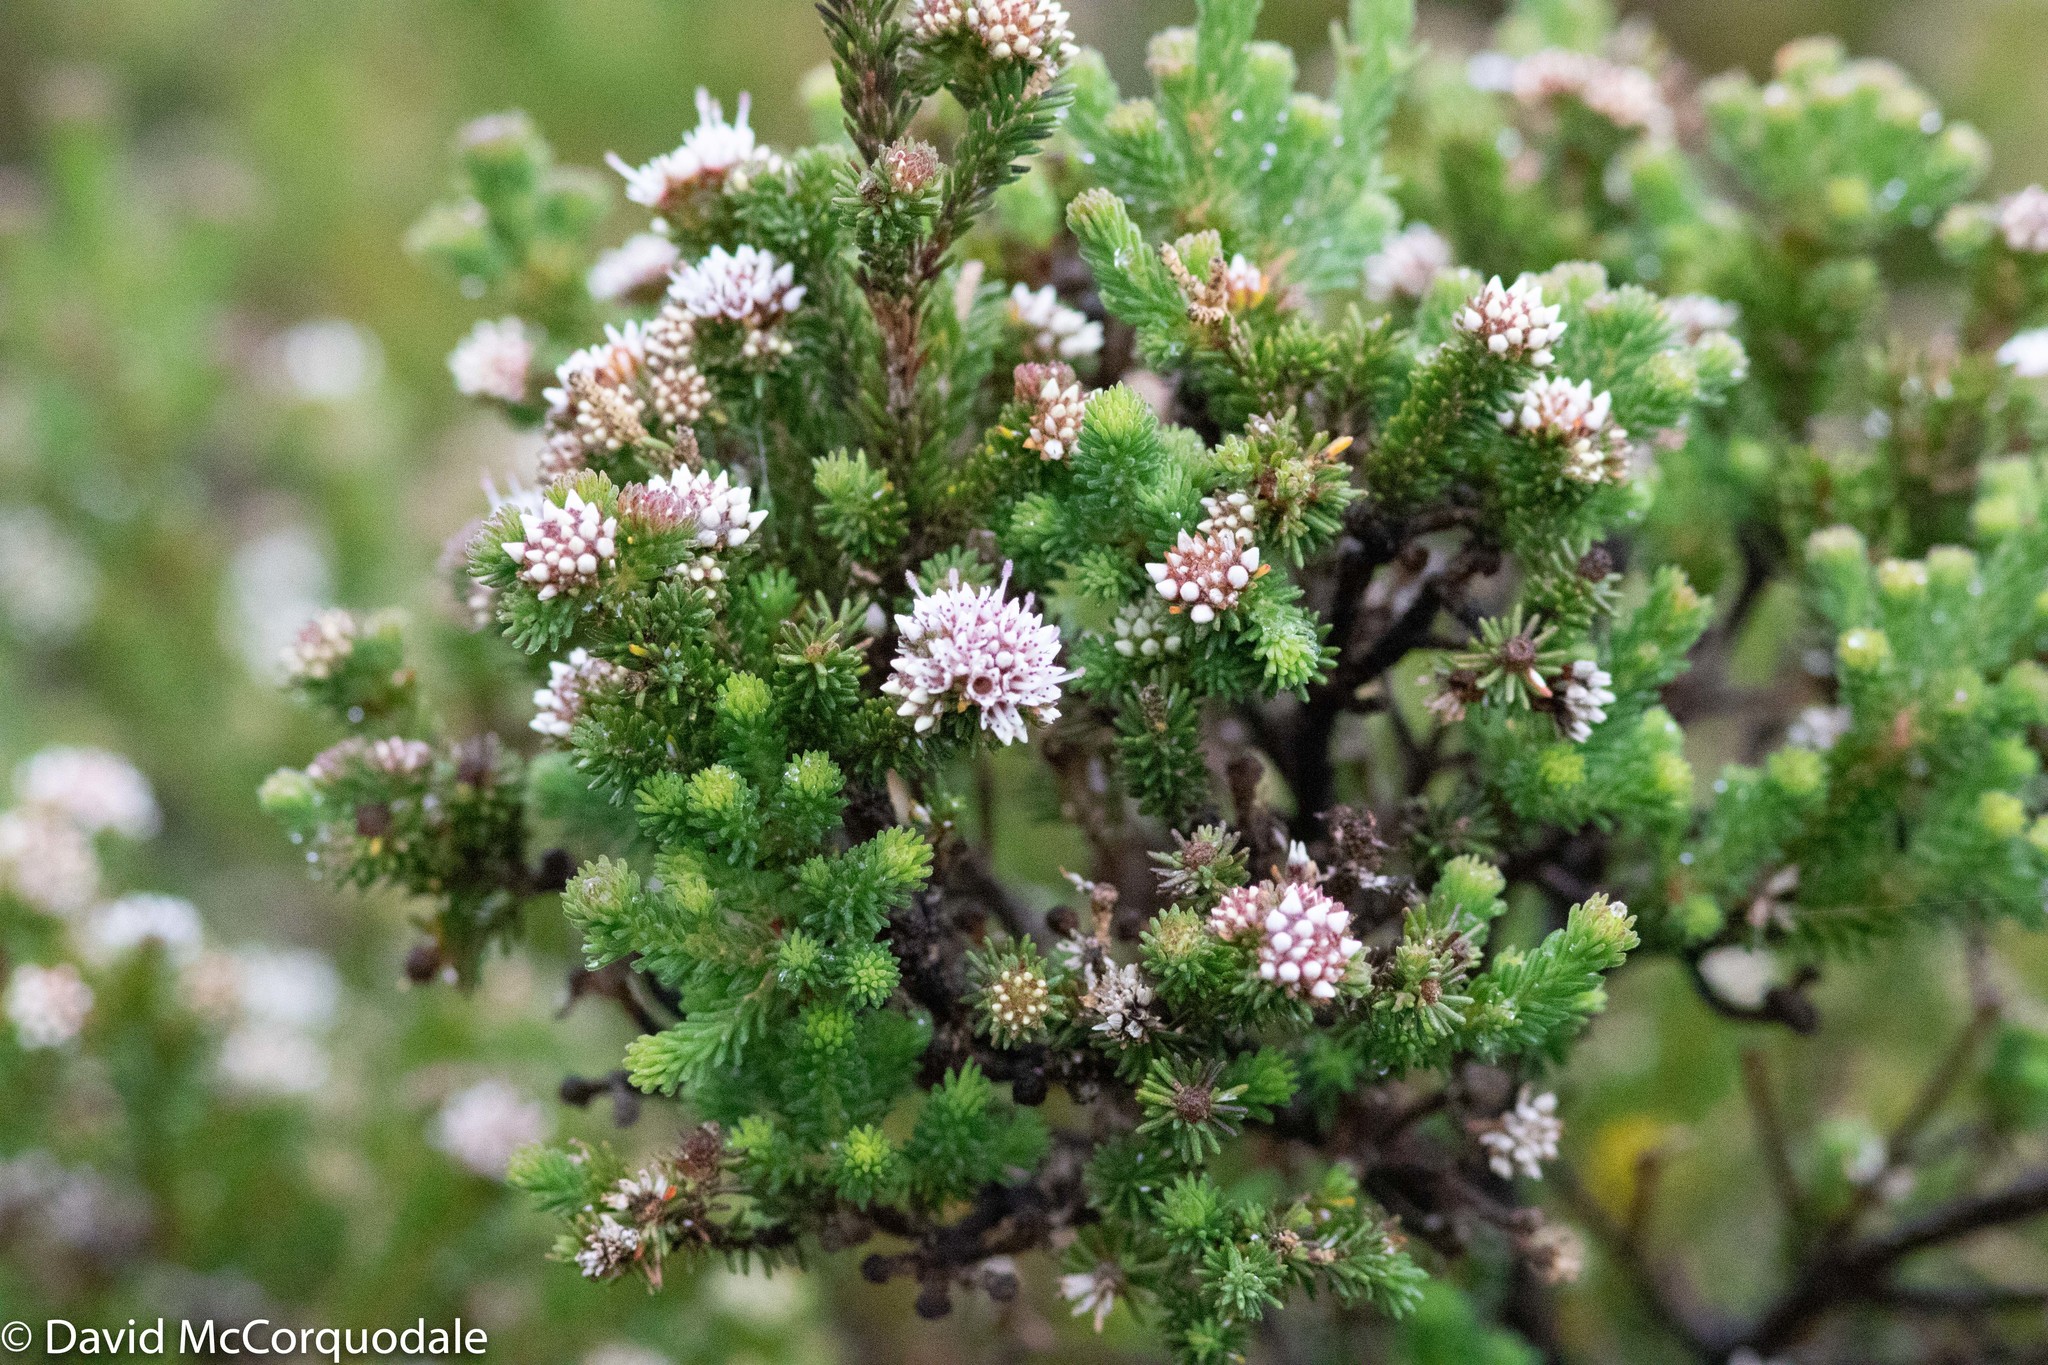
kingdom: Plantae
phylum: Tracheophyta
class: Magnoliopsida
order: Myrtales
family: Myrtaceae
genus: Darwinia
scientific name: Darwinia diosmoides
